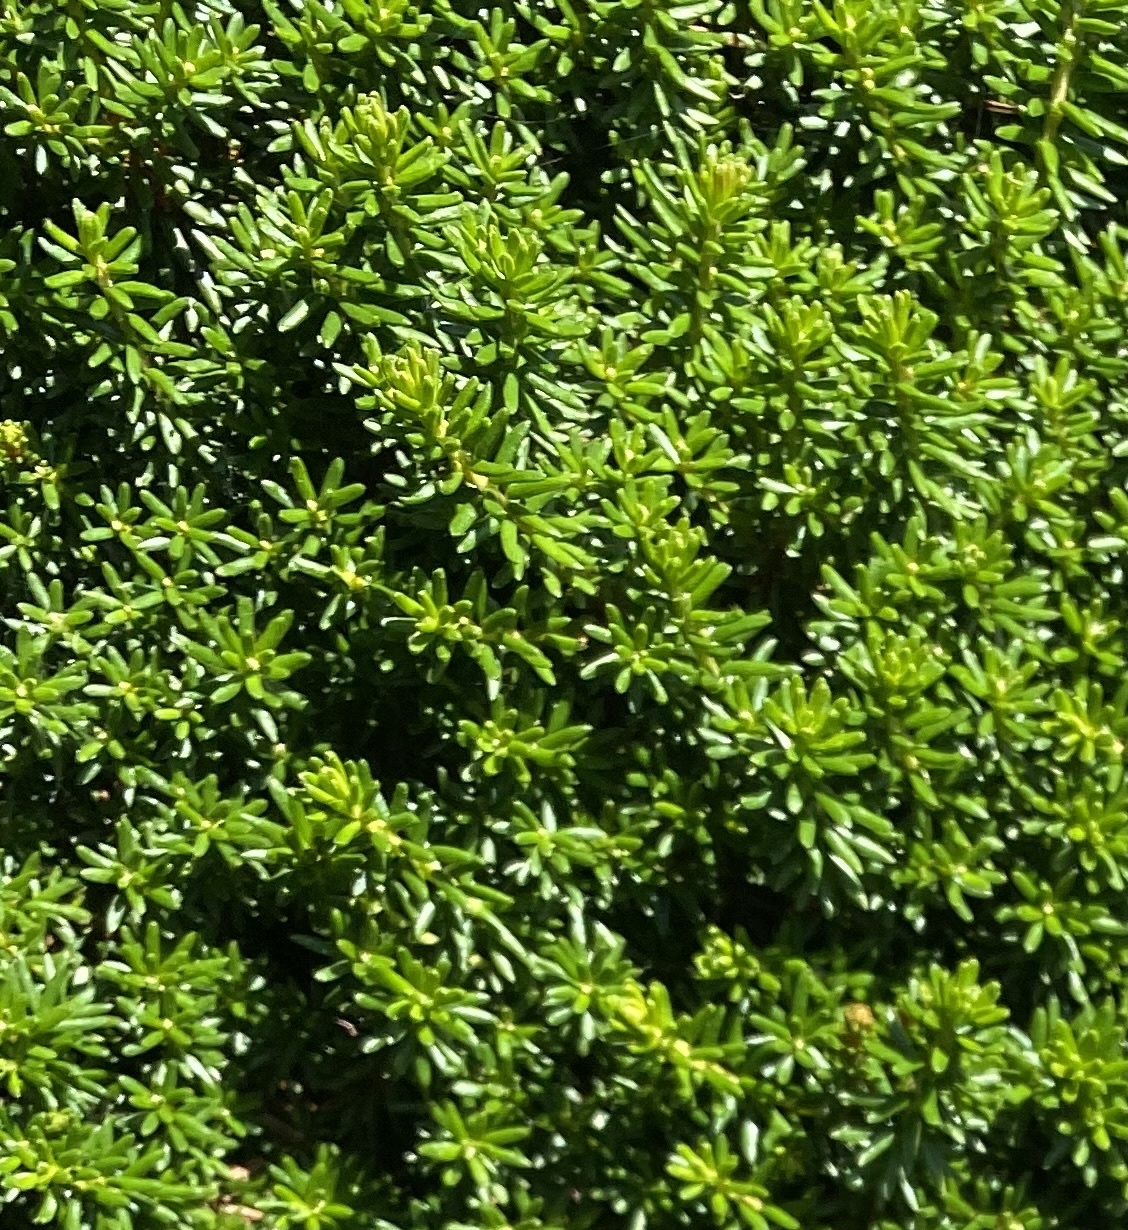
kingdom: Plantae
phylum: Tracheophyta
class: Magnoliopsida
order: Ericales
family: Ericaceae
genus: Empetrum
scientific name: Empetrum nigrum
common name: Black crowberry
